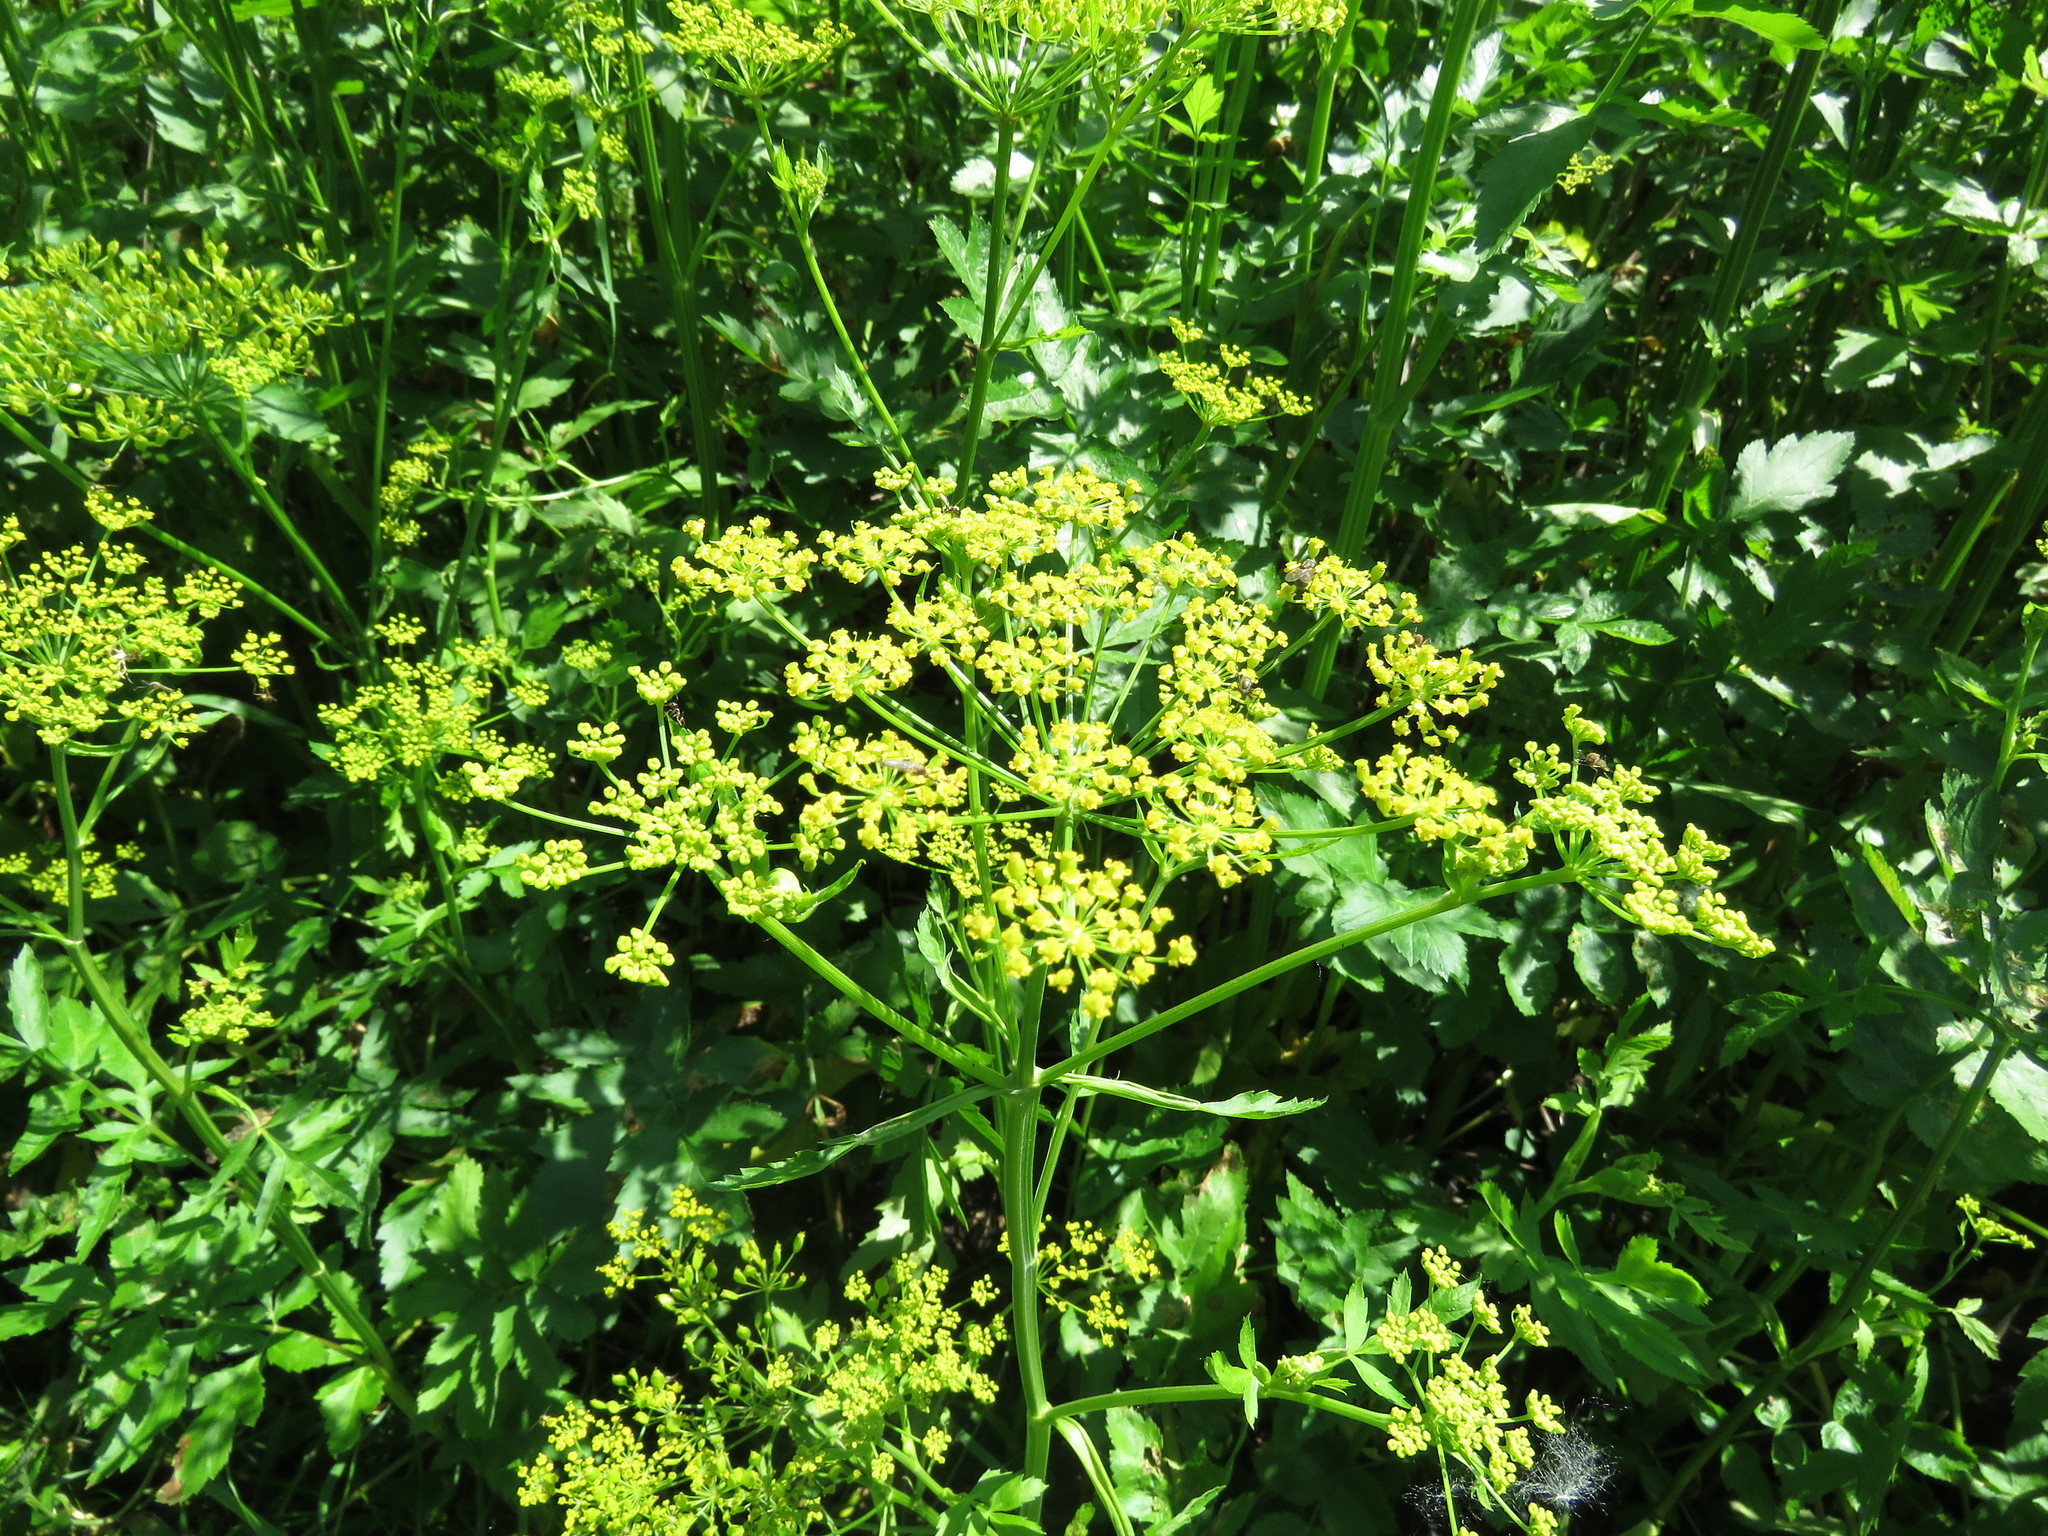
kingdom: Plantae
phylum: Tracheophyta
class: Magnoliopsida
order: Apiales
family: Apiaceae
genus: Pastinaca
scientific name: Pastinaca sativa
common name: Wild parsnip
